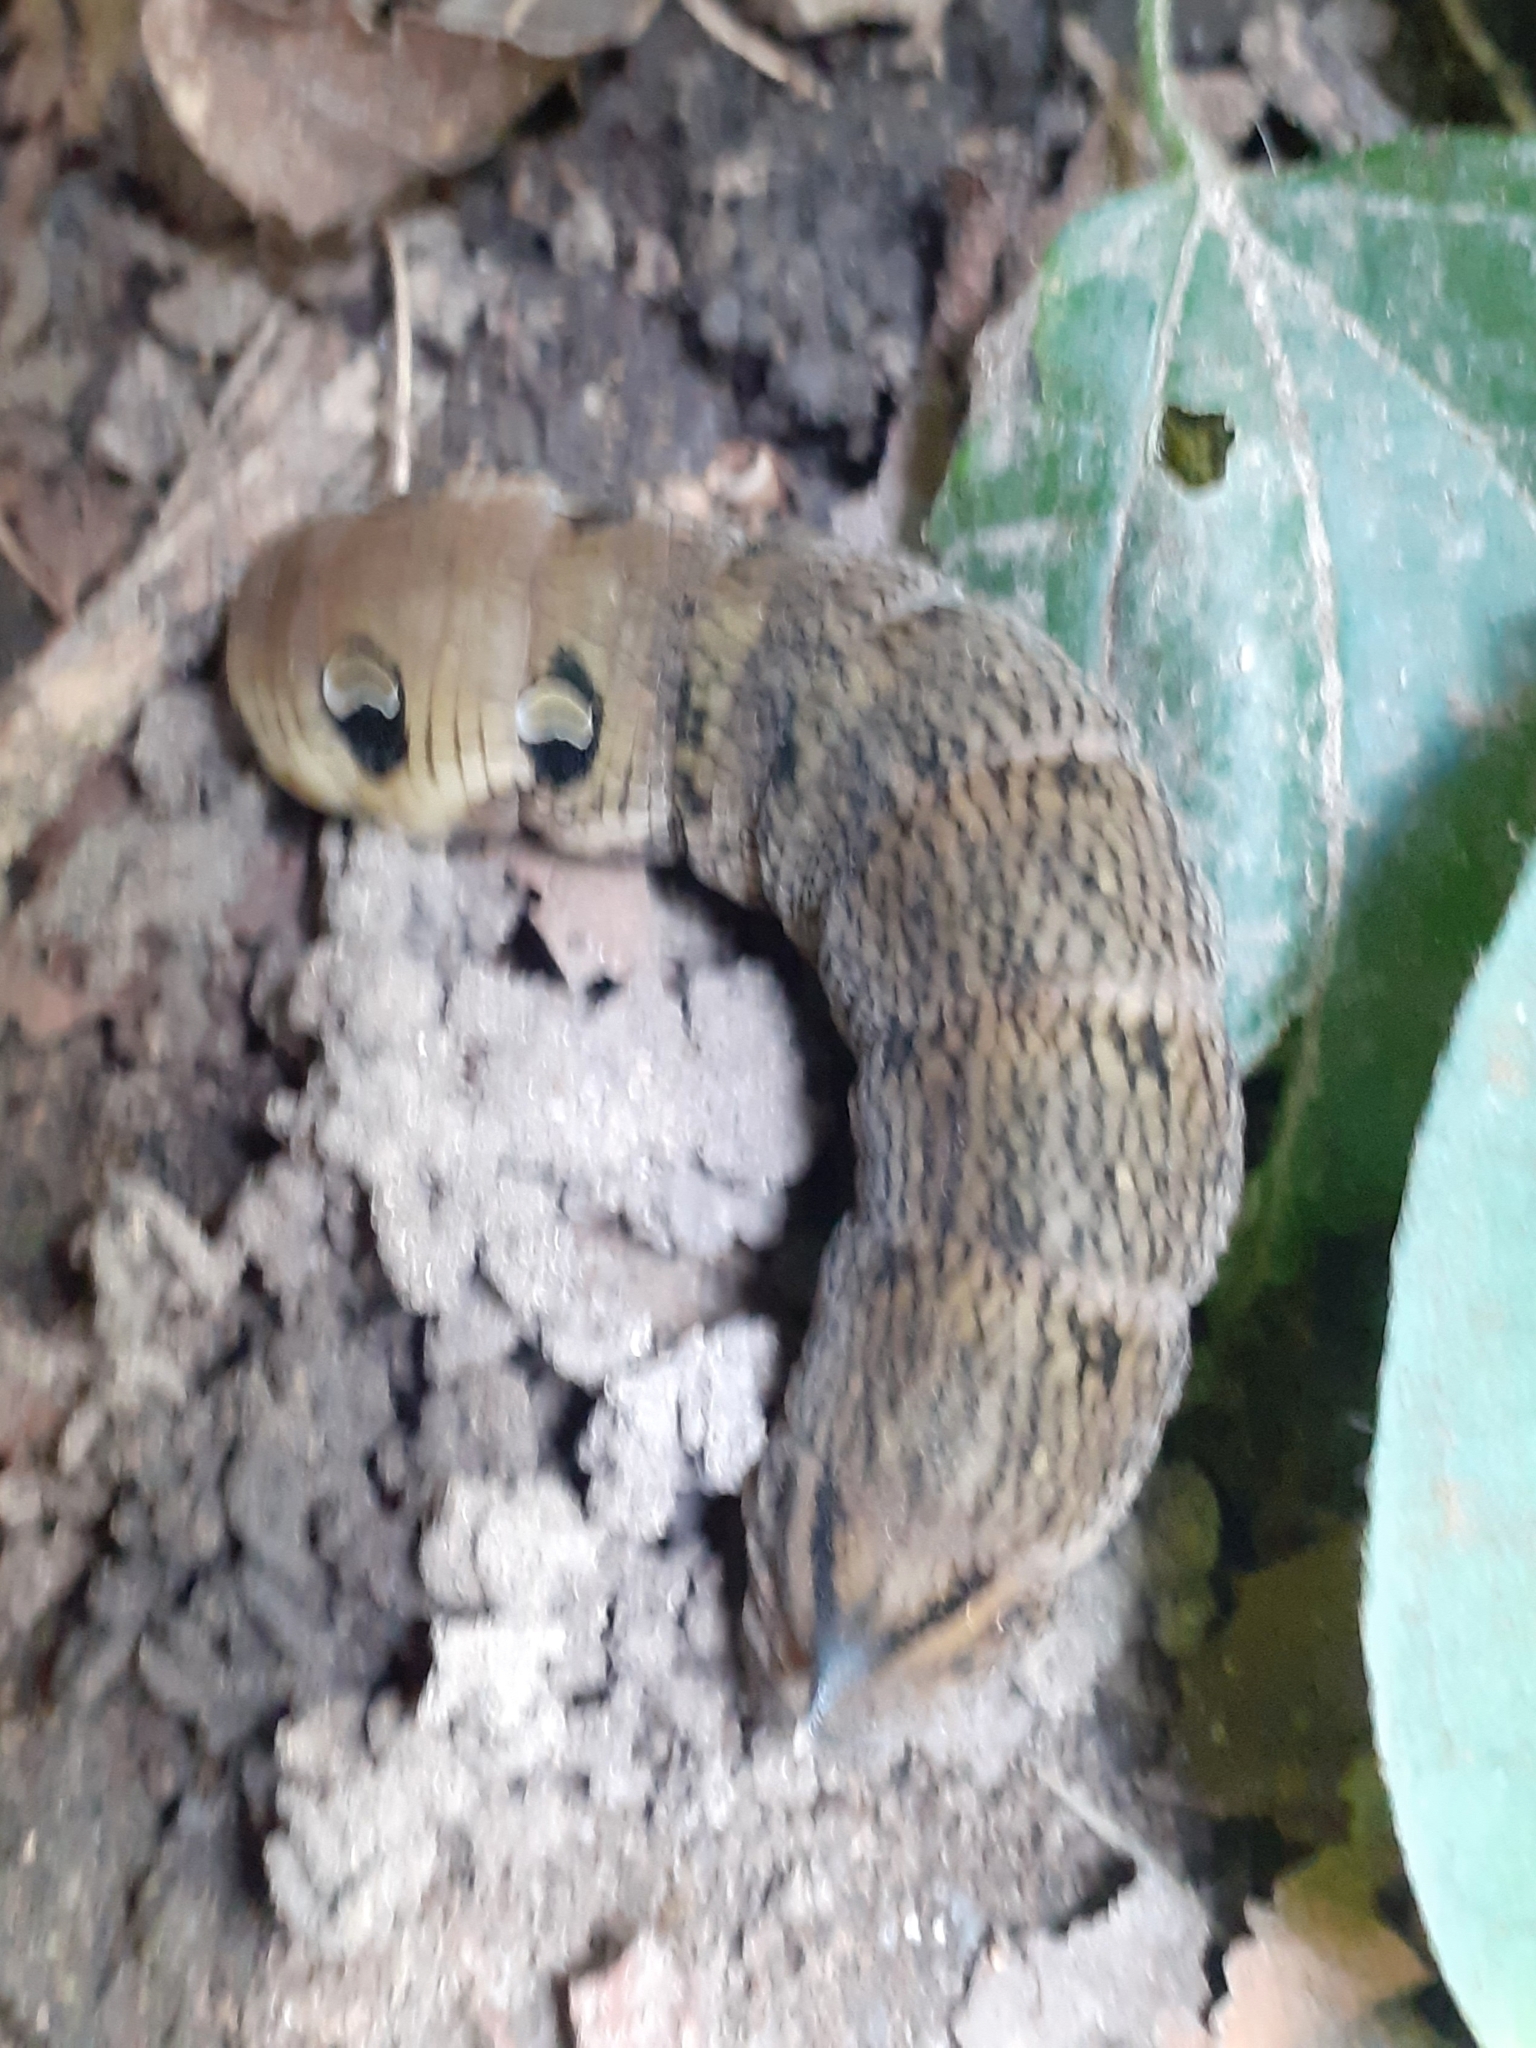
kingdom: Animalia
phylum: Arthropoda
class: Insecta
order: Lepidoptera
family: Sphingidae
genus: Deilephila
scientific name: Deilephila elpenor
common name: Elephant hawk-moth
